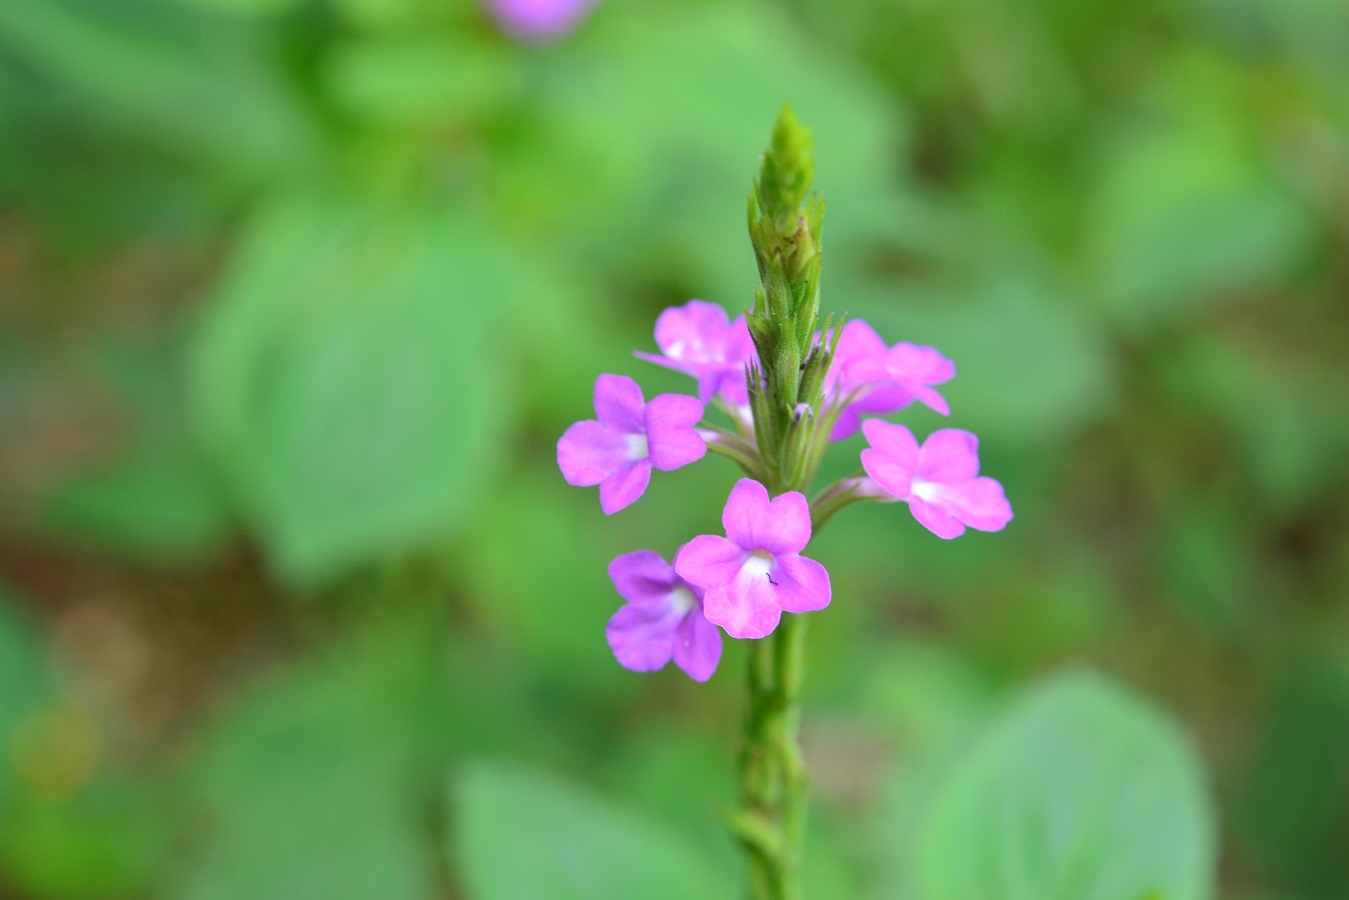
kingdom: Plantae
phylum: Tracheophyta
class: Magnoliopsida
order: Lamiales
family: Verbenaceae
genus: Bouchea
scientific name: Bouchea prismatica
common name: Vervine
